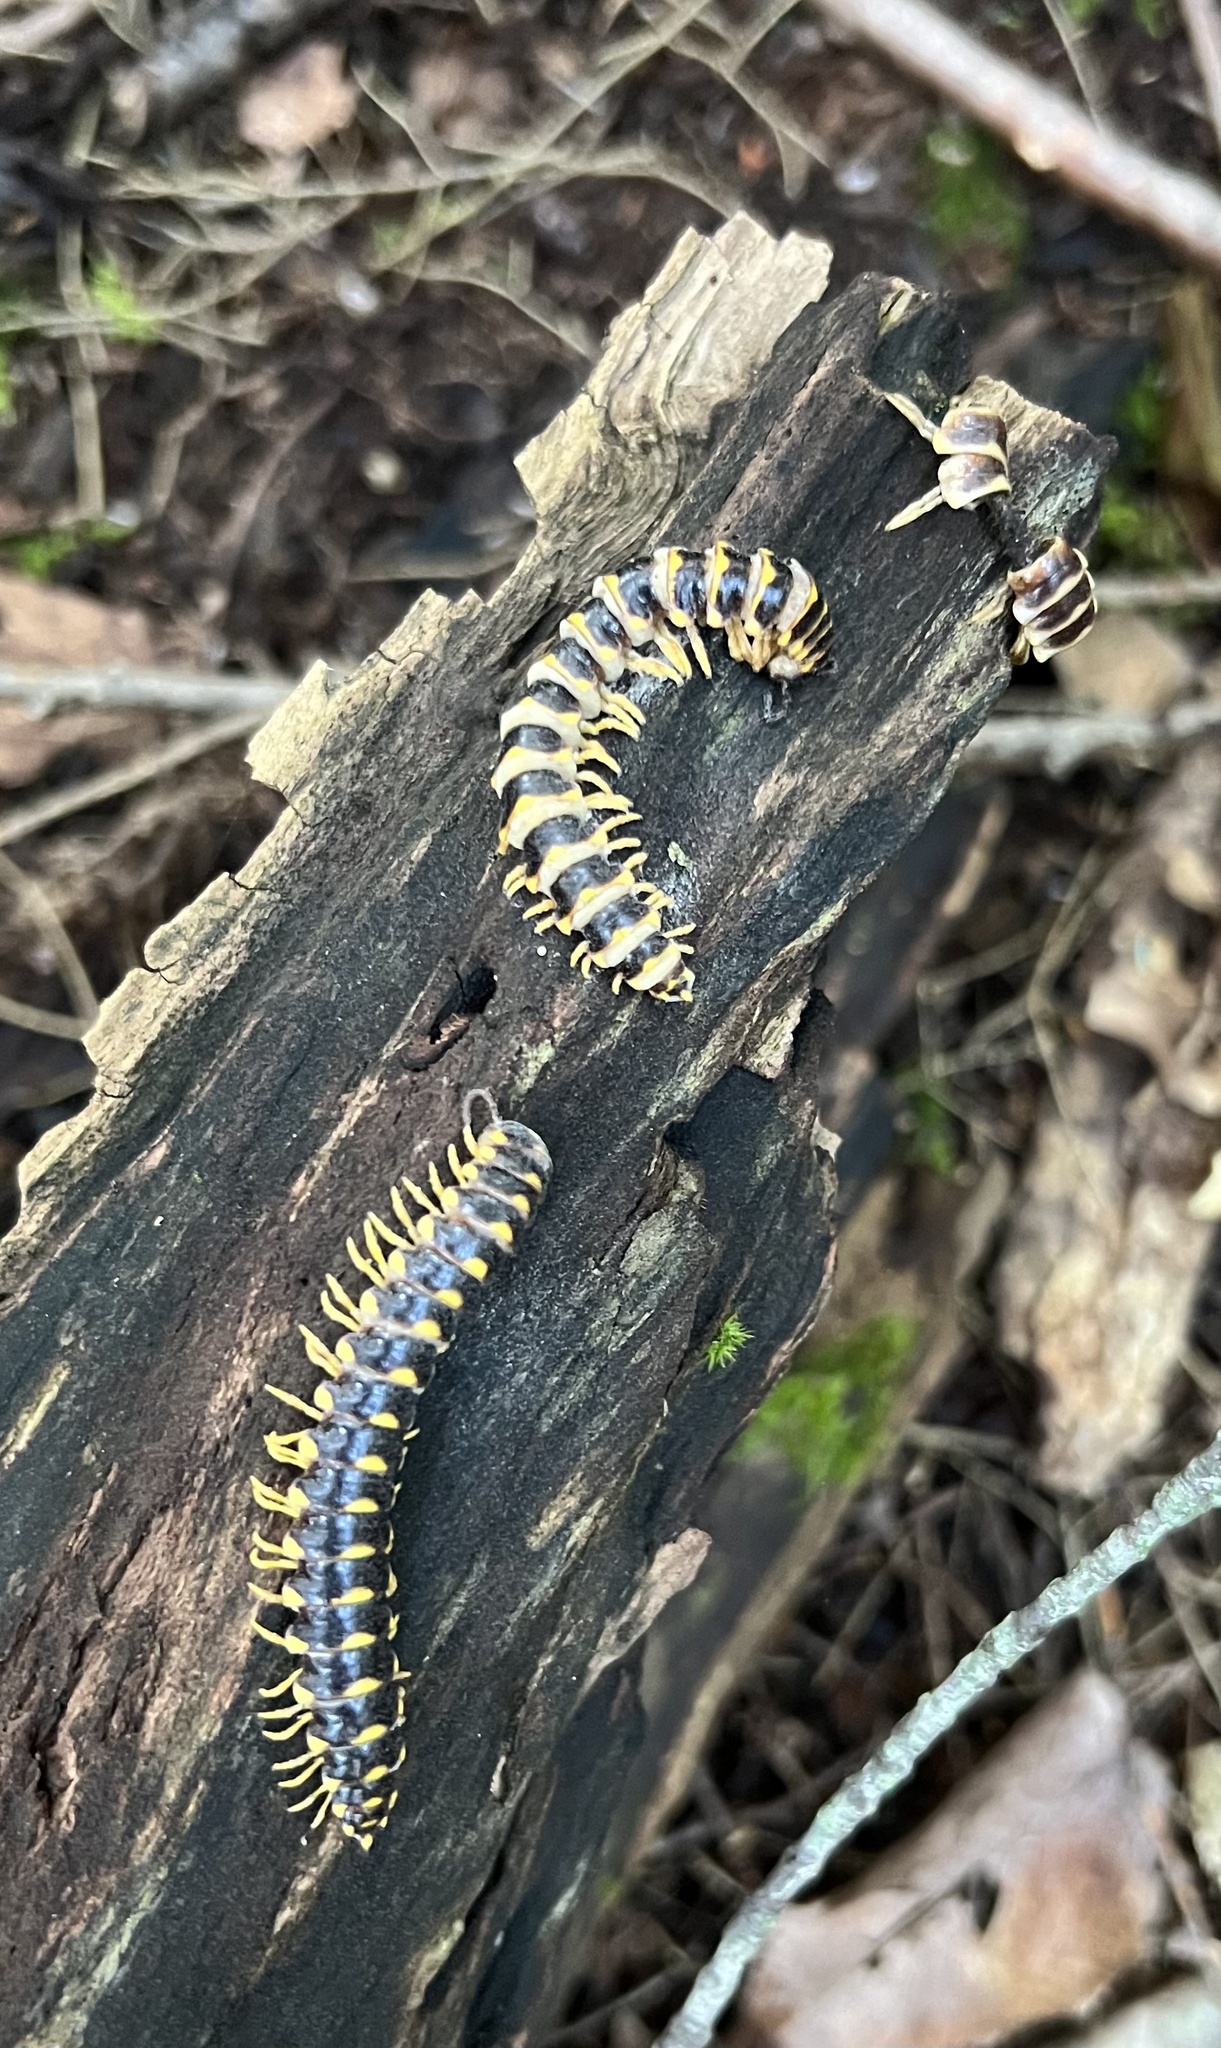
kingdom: Fungi
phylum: Entomophthoromycota
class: Entomophthoromycetes
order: Entomophthorales
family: Entomophthoraceae
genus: Arthrophaga
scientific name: Arthrophaga myriapodina
